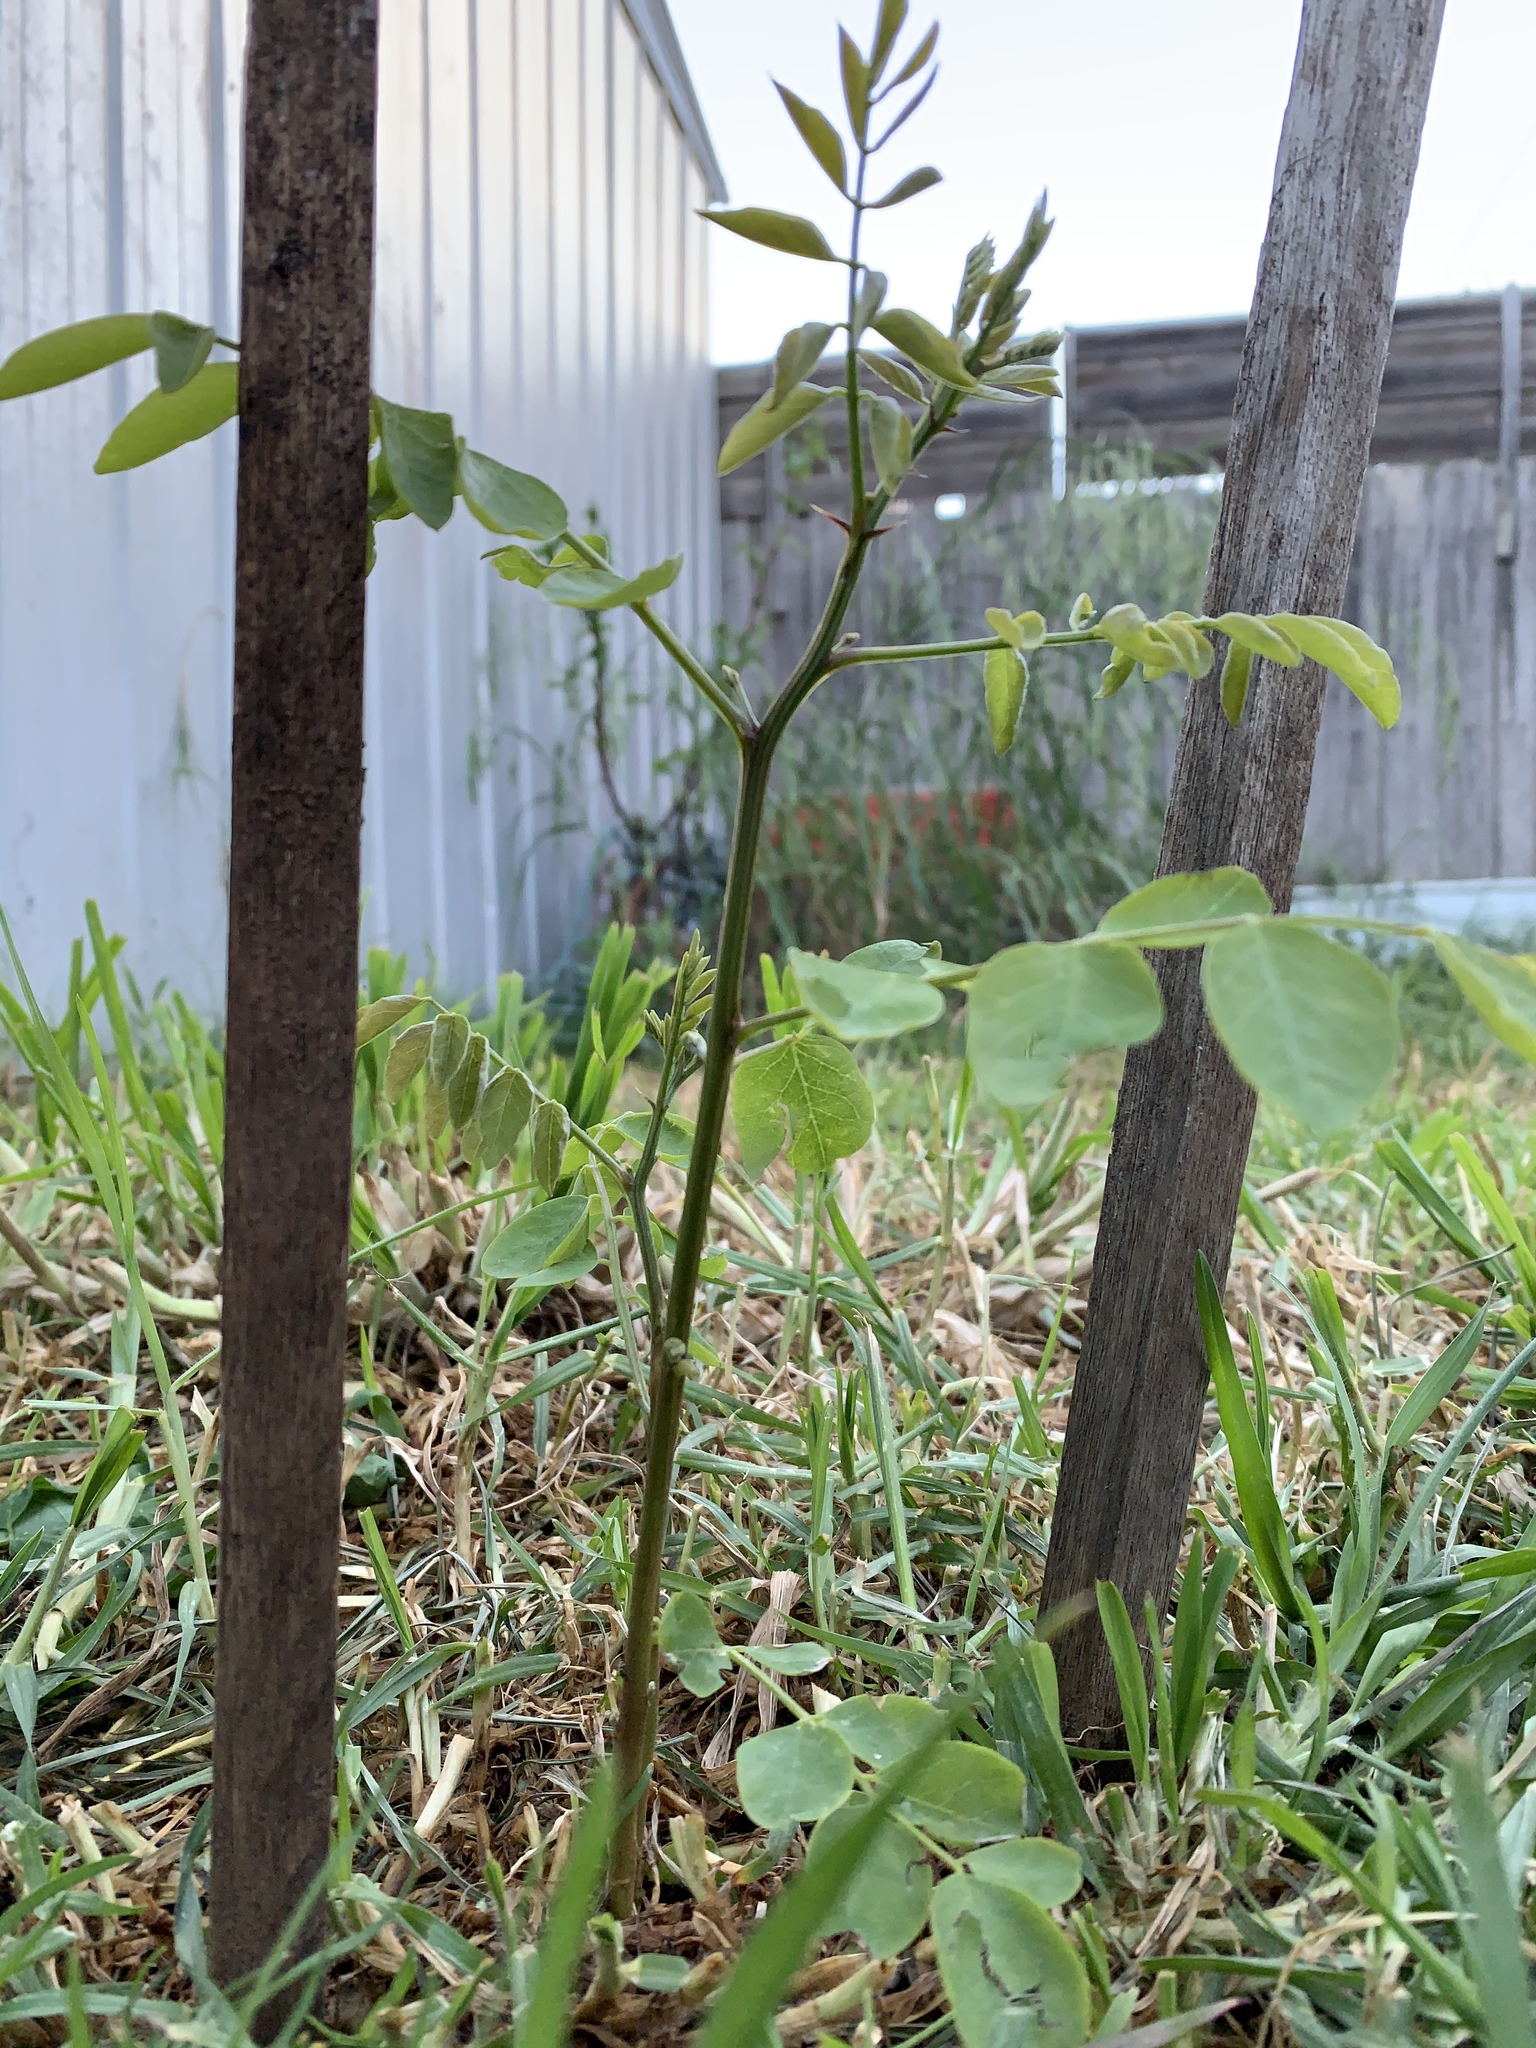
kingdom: Plantae
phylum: Tracheophyta
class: Magnoliopsida
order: Fabales
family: Fabaceae
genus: Robinia
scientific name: Robinia pseudoacacia
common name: Black locust
